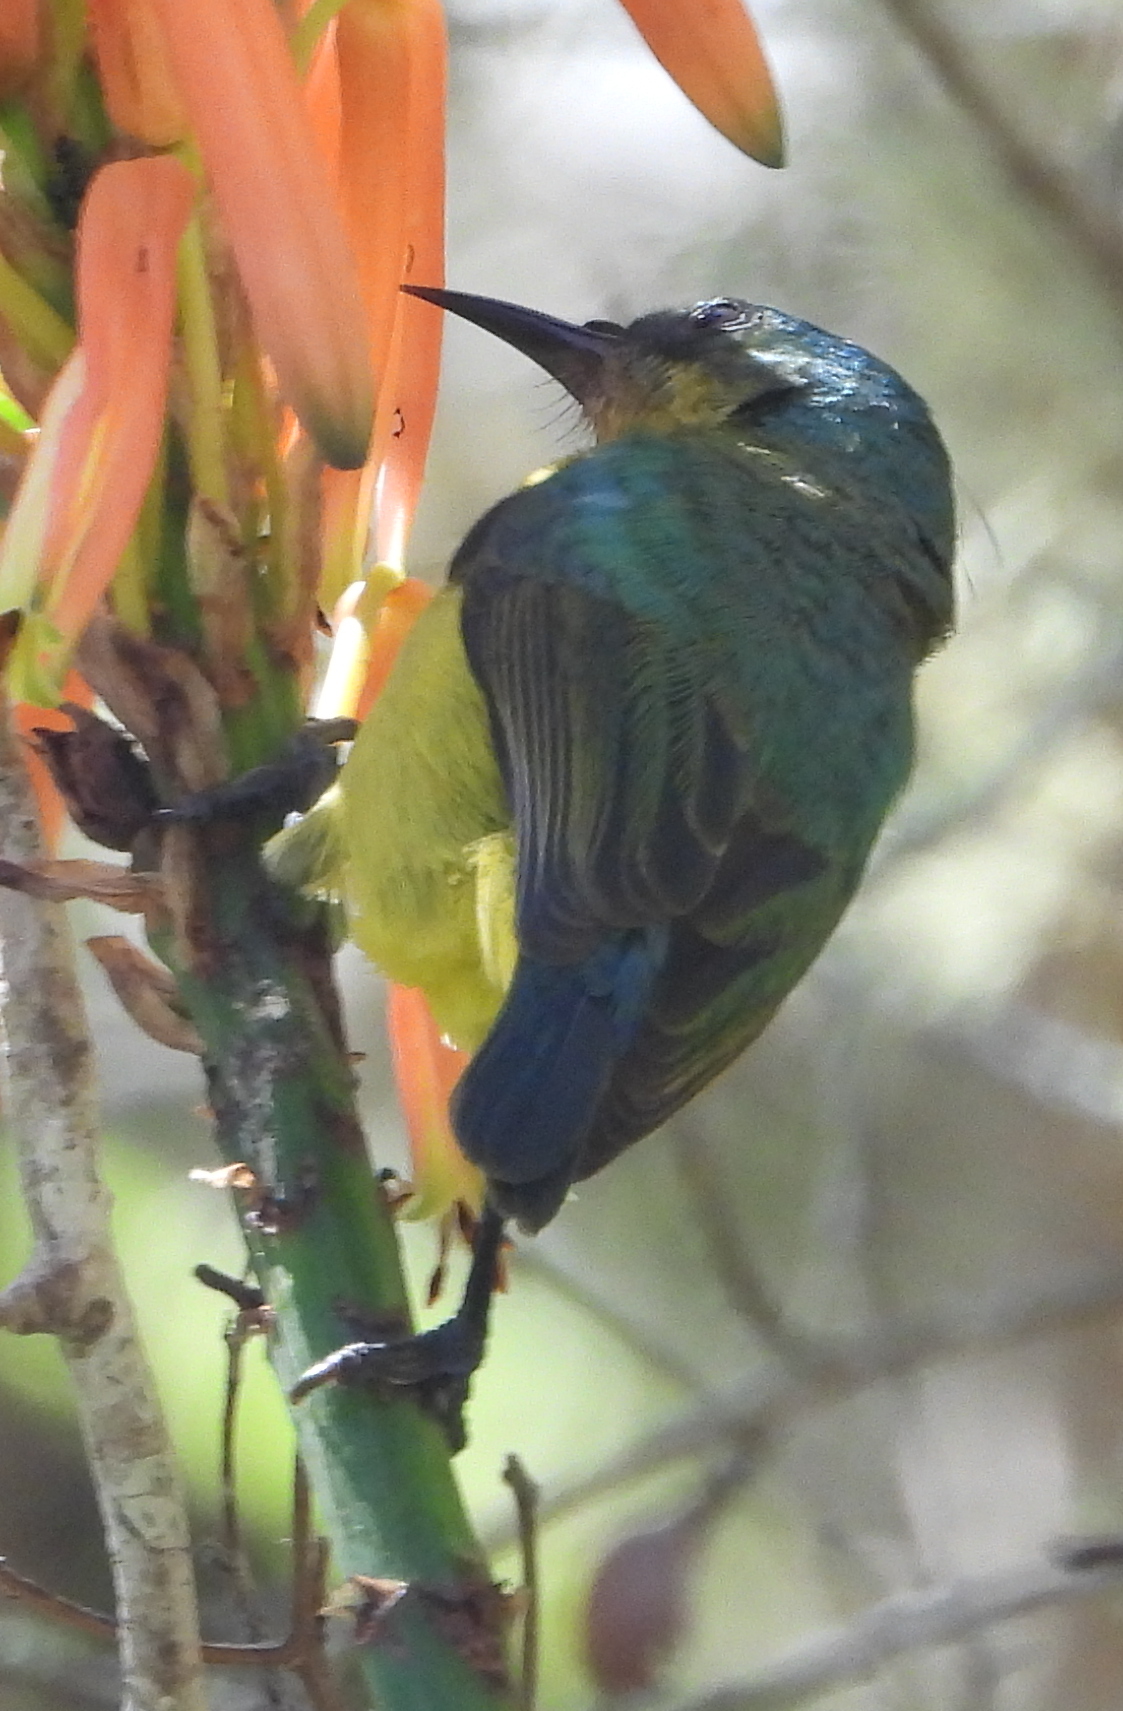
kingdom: Animalia
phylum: Chordata
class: Aves
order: Passeriformes
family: Nectariniidae
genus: Hedydipna
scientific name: Hedydipna collaris
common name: Collared sunbird
